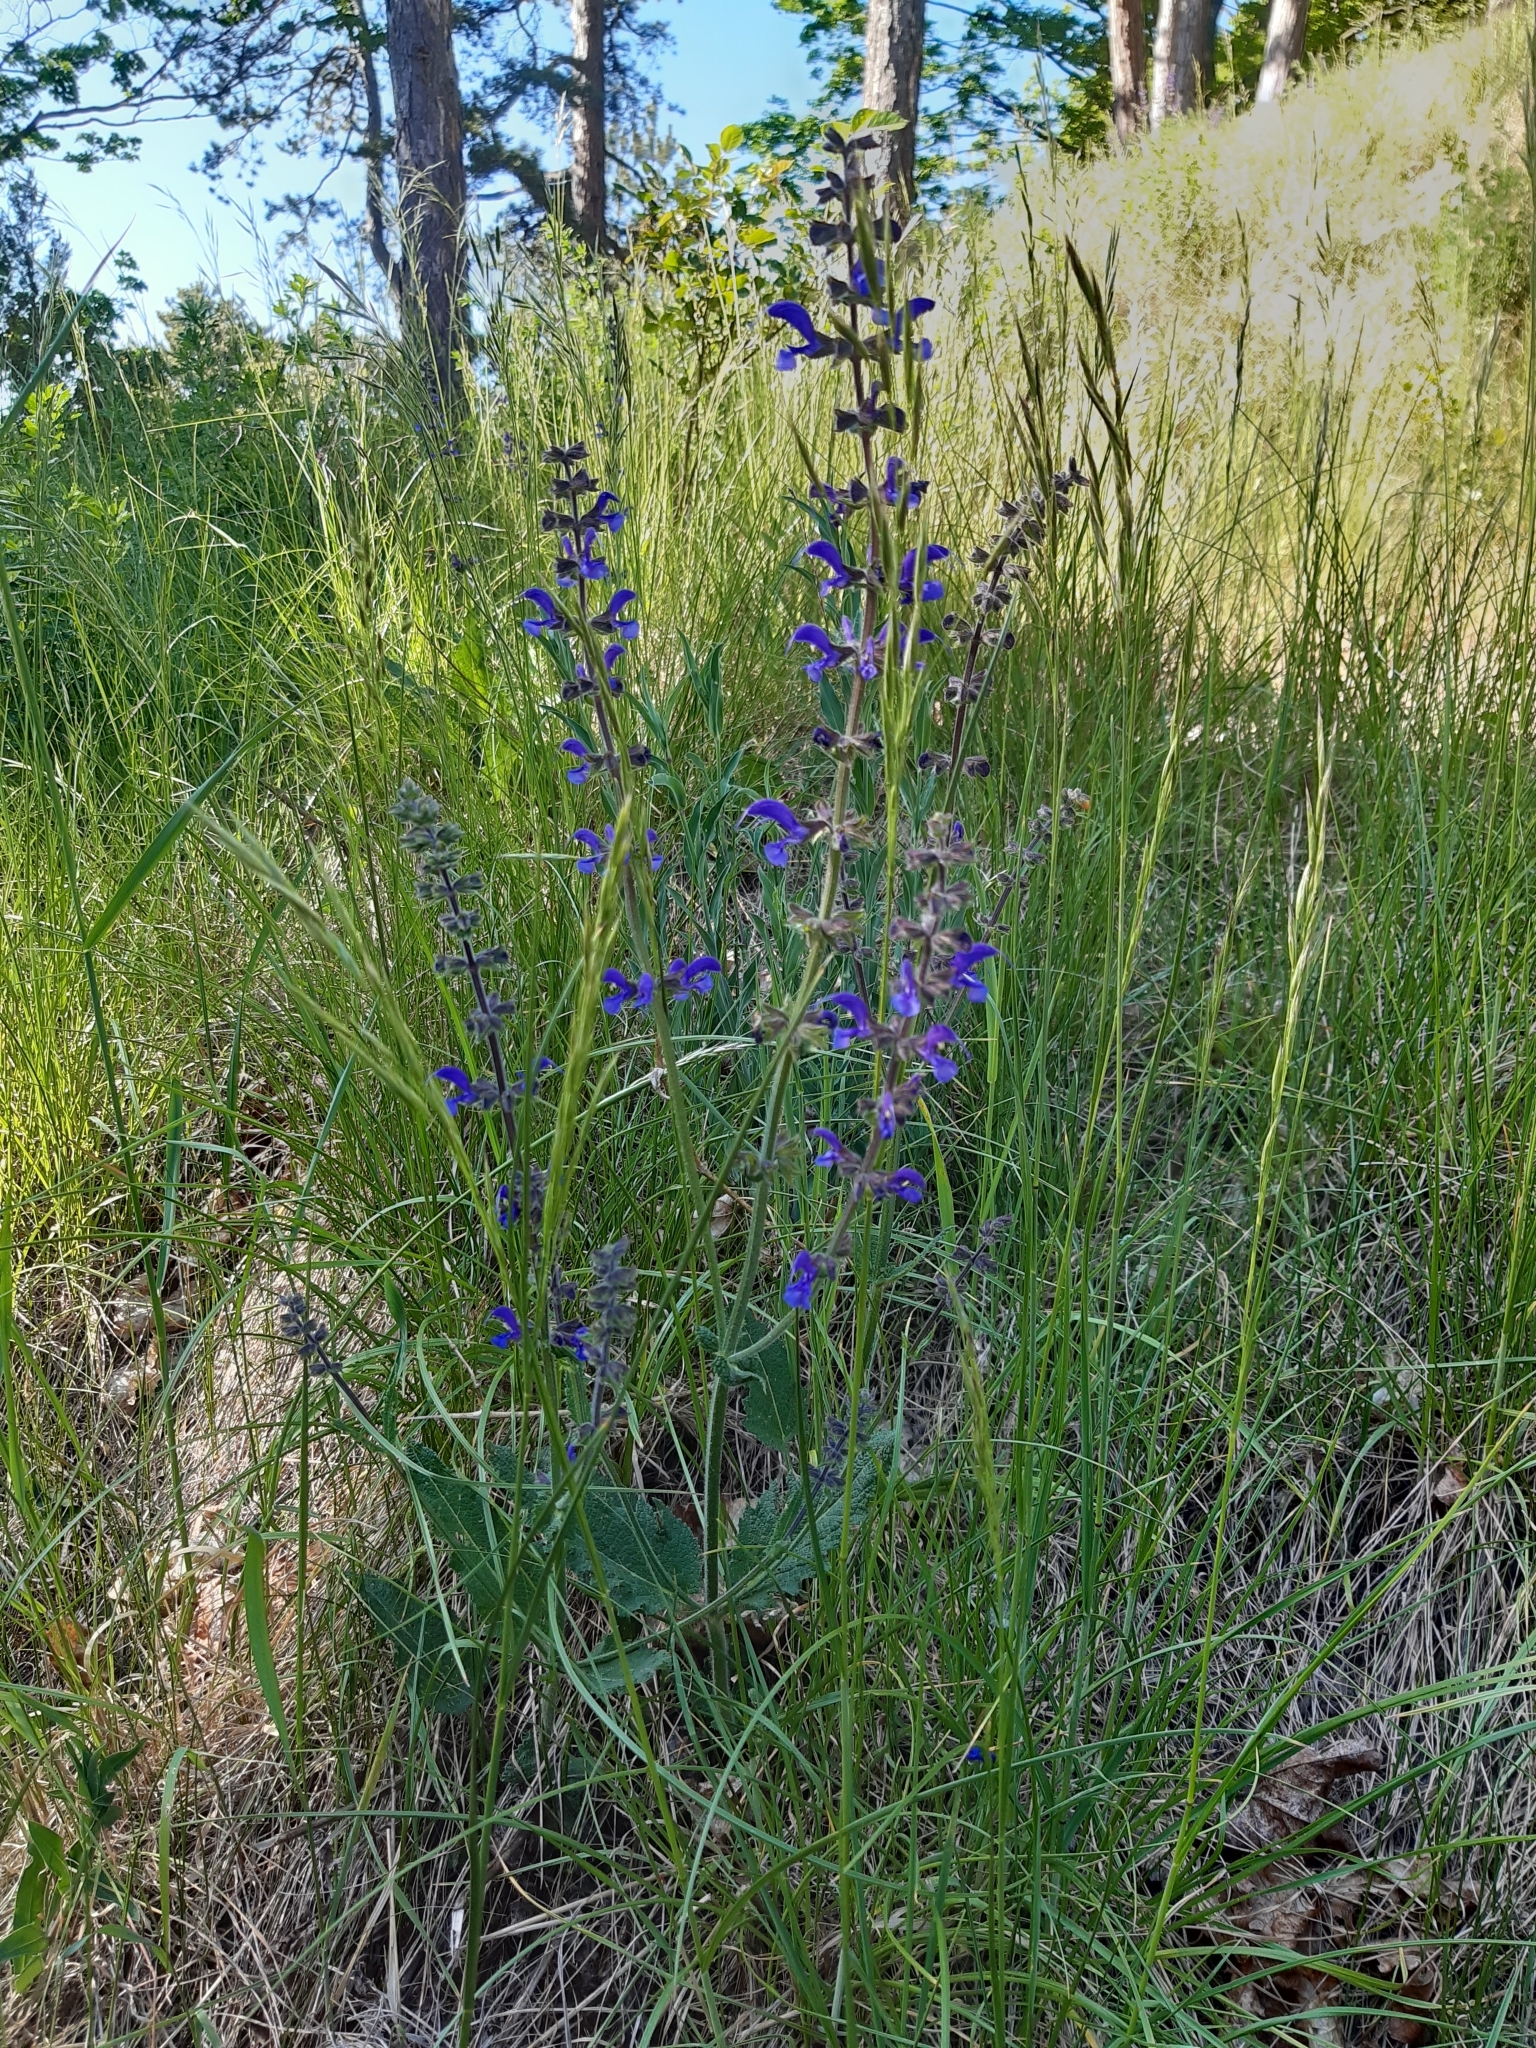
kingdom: Plantae
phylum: Tracheophyta
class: Magnoliopsida
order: Lamiales
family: Lamiaceae
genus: Salvia
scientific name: Salvia pratensis
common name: Meadow sage
